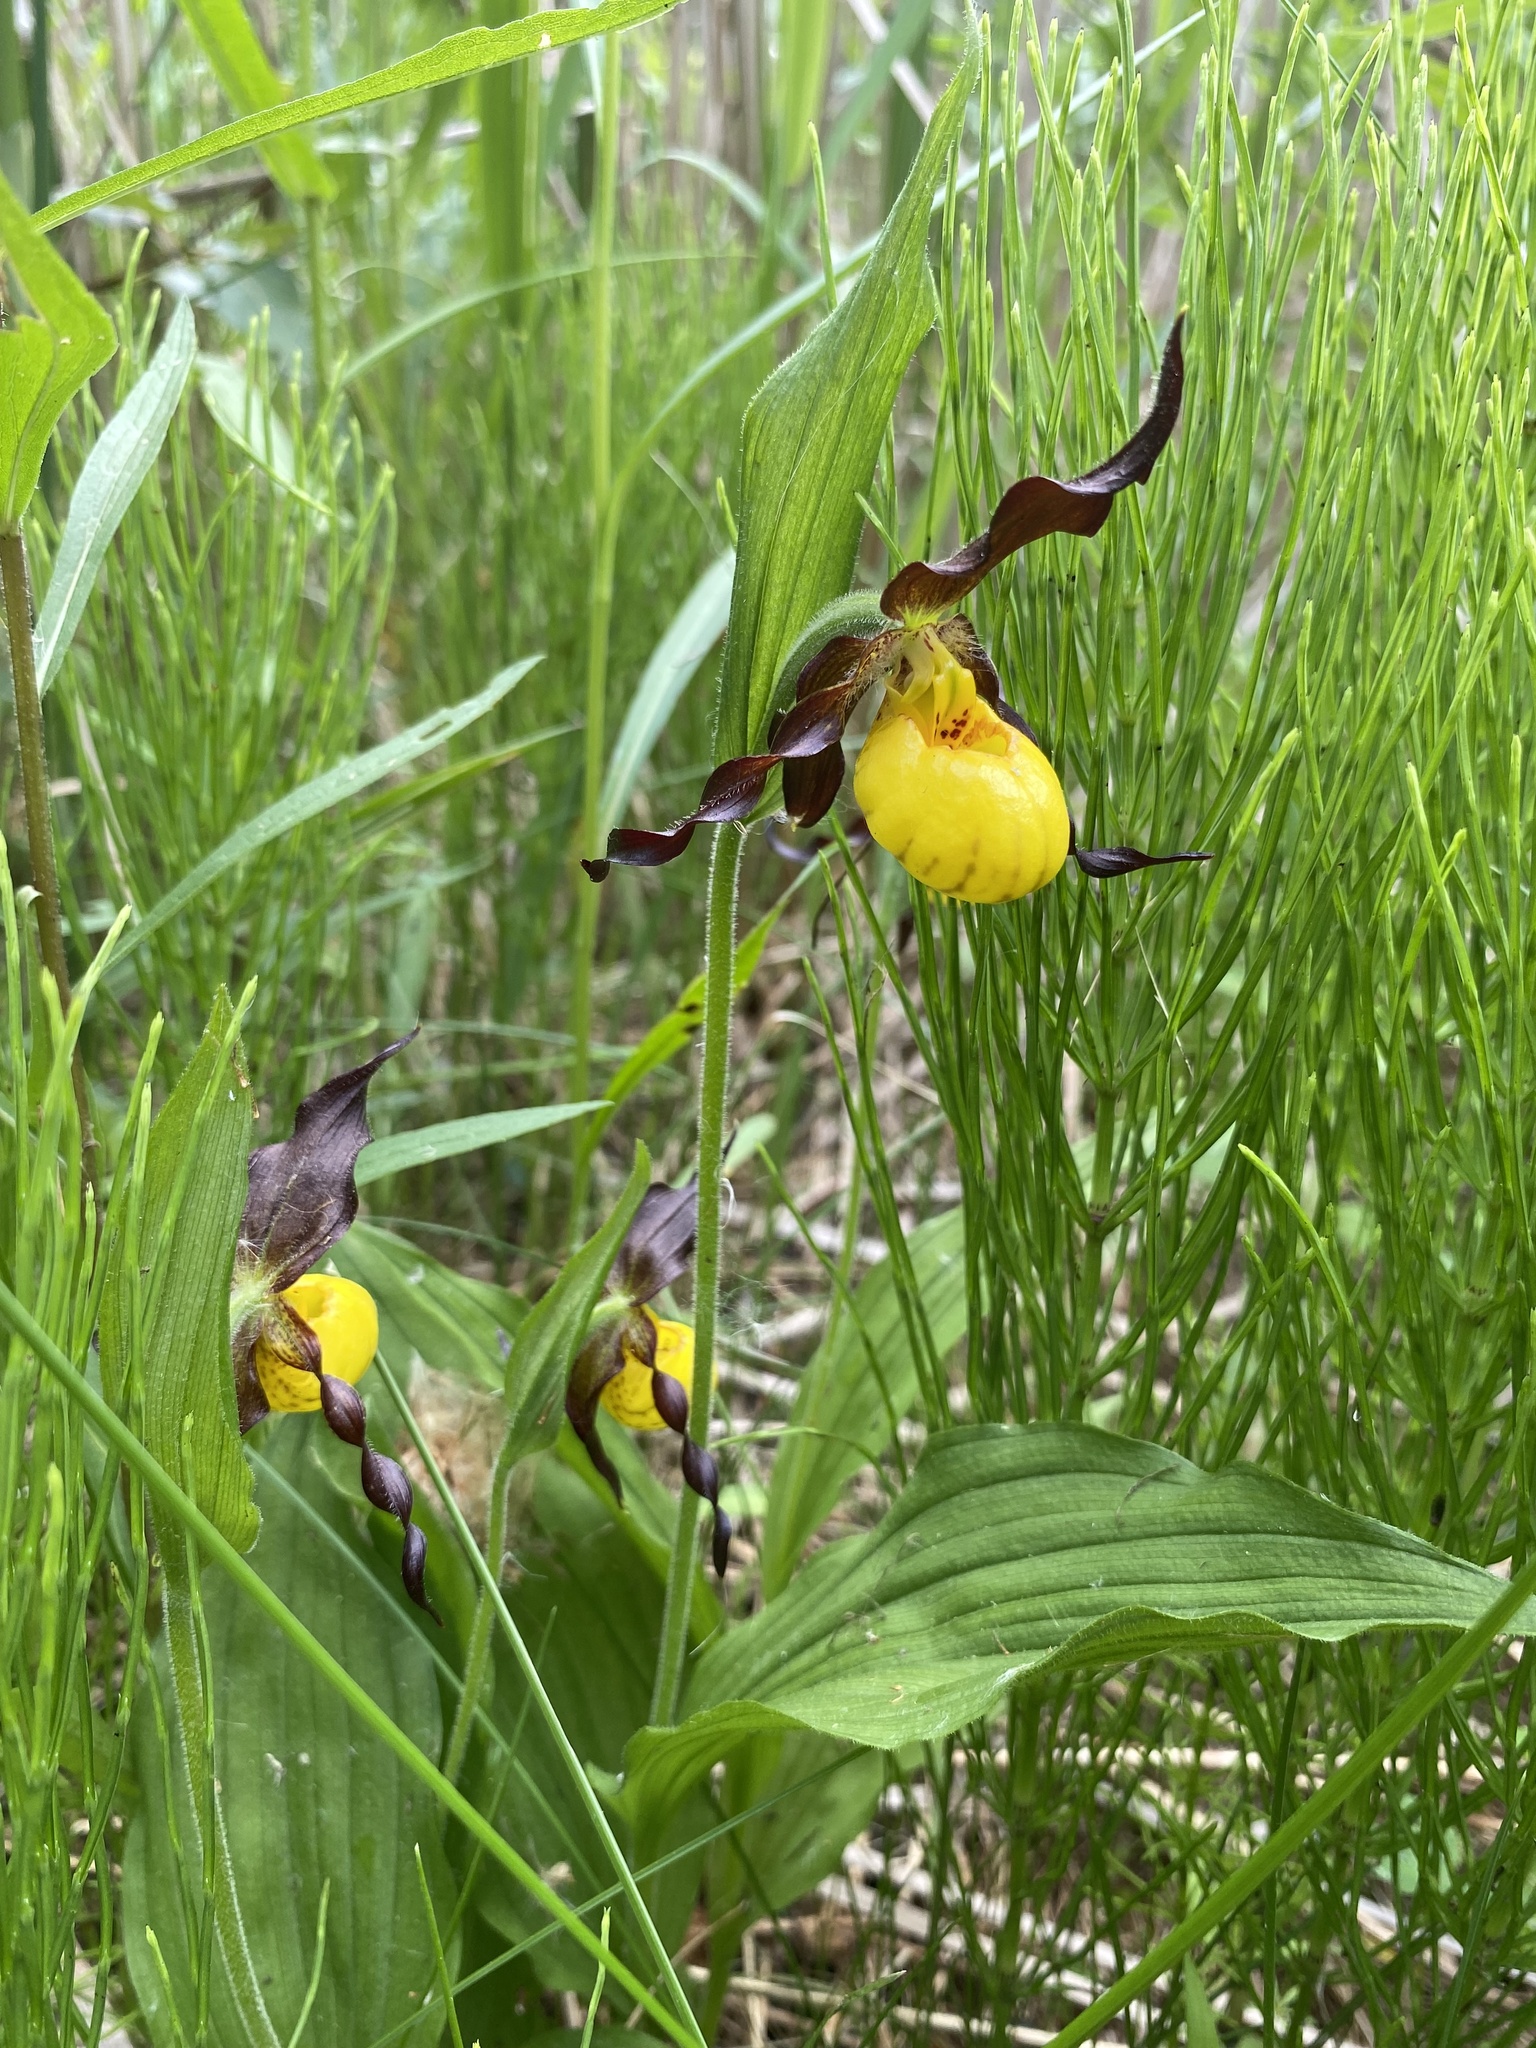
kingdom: Plantae
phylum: Tracheophyta
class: Liliopsida
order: Asparagales
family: Orchidaceae
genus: Cypripedium
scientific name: Cypripedium parviflorum
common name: American yellow lady's-slipper
